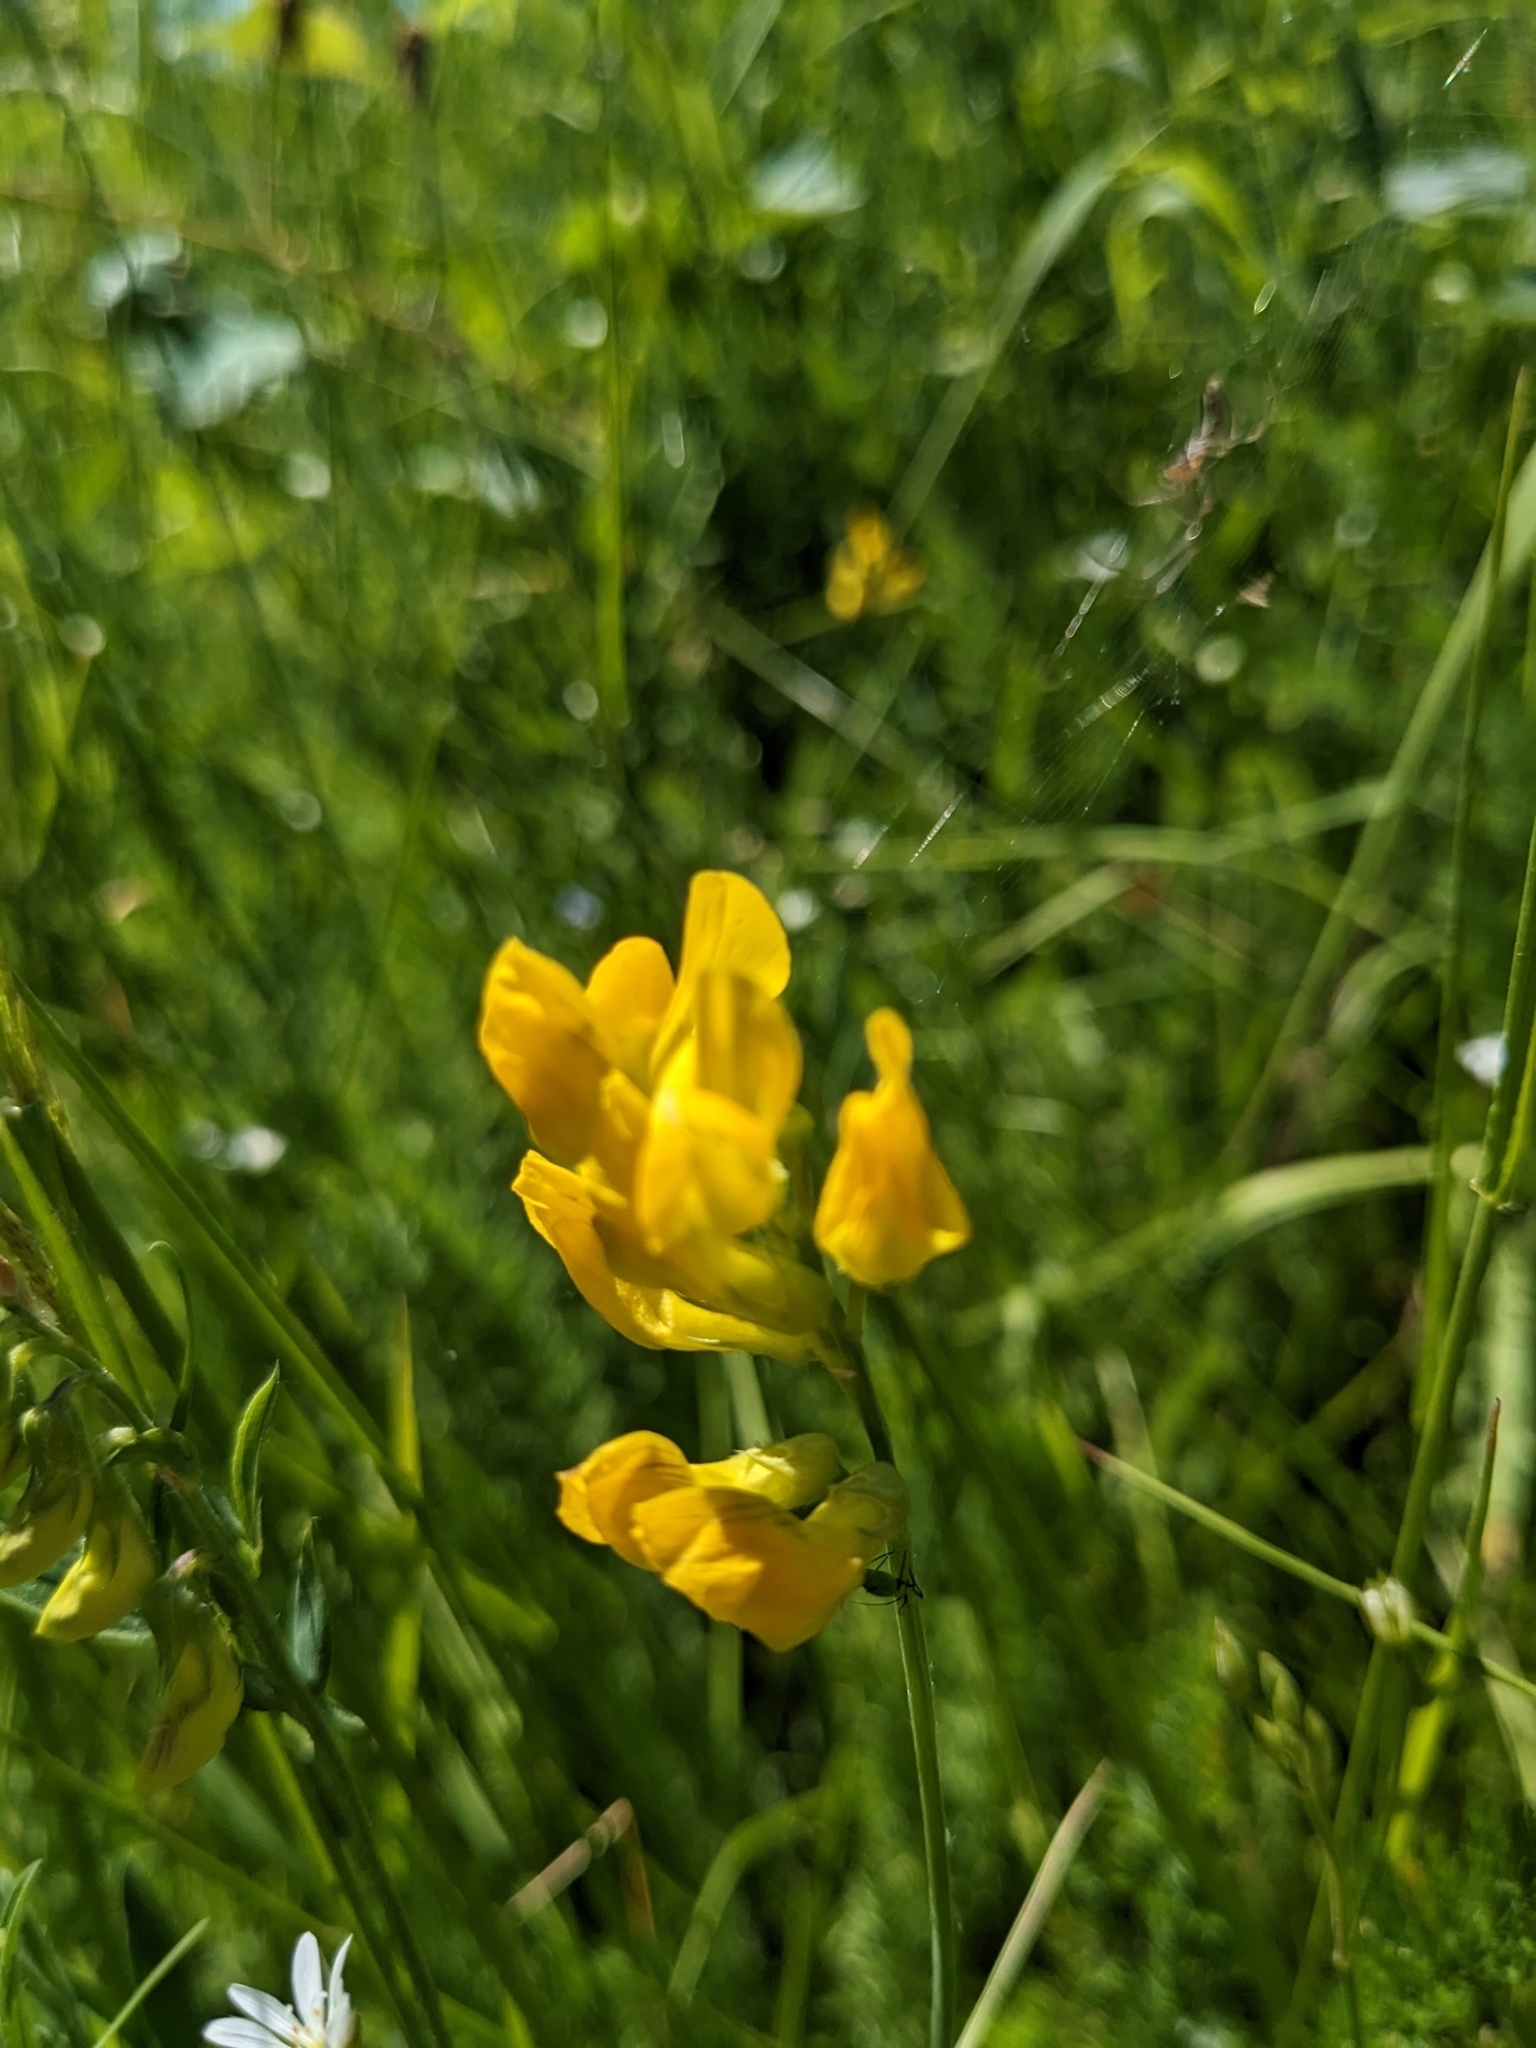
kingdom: Plantae
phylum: Tracheophyta
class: Magnoliopsida
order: Fabales
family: Fabaceae
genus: Lathyrus
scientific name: Lathyrus pratensis
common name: Meadow vetchling
